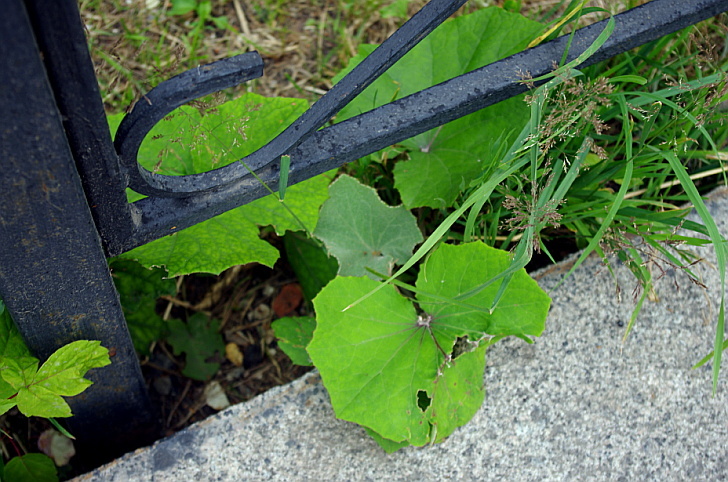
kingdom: Plantae
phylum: Tracheophyta
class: Magnoliopsida
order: Asterales
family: Asteraceae
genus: Tussilago
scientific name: Tussilago farfara
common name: Coltsfoot
